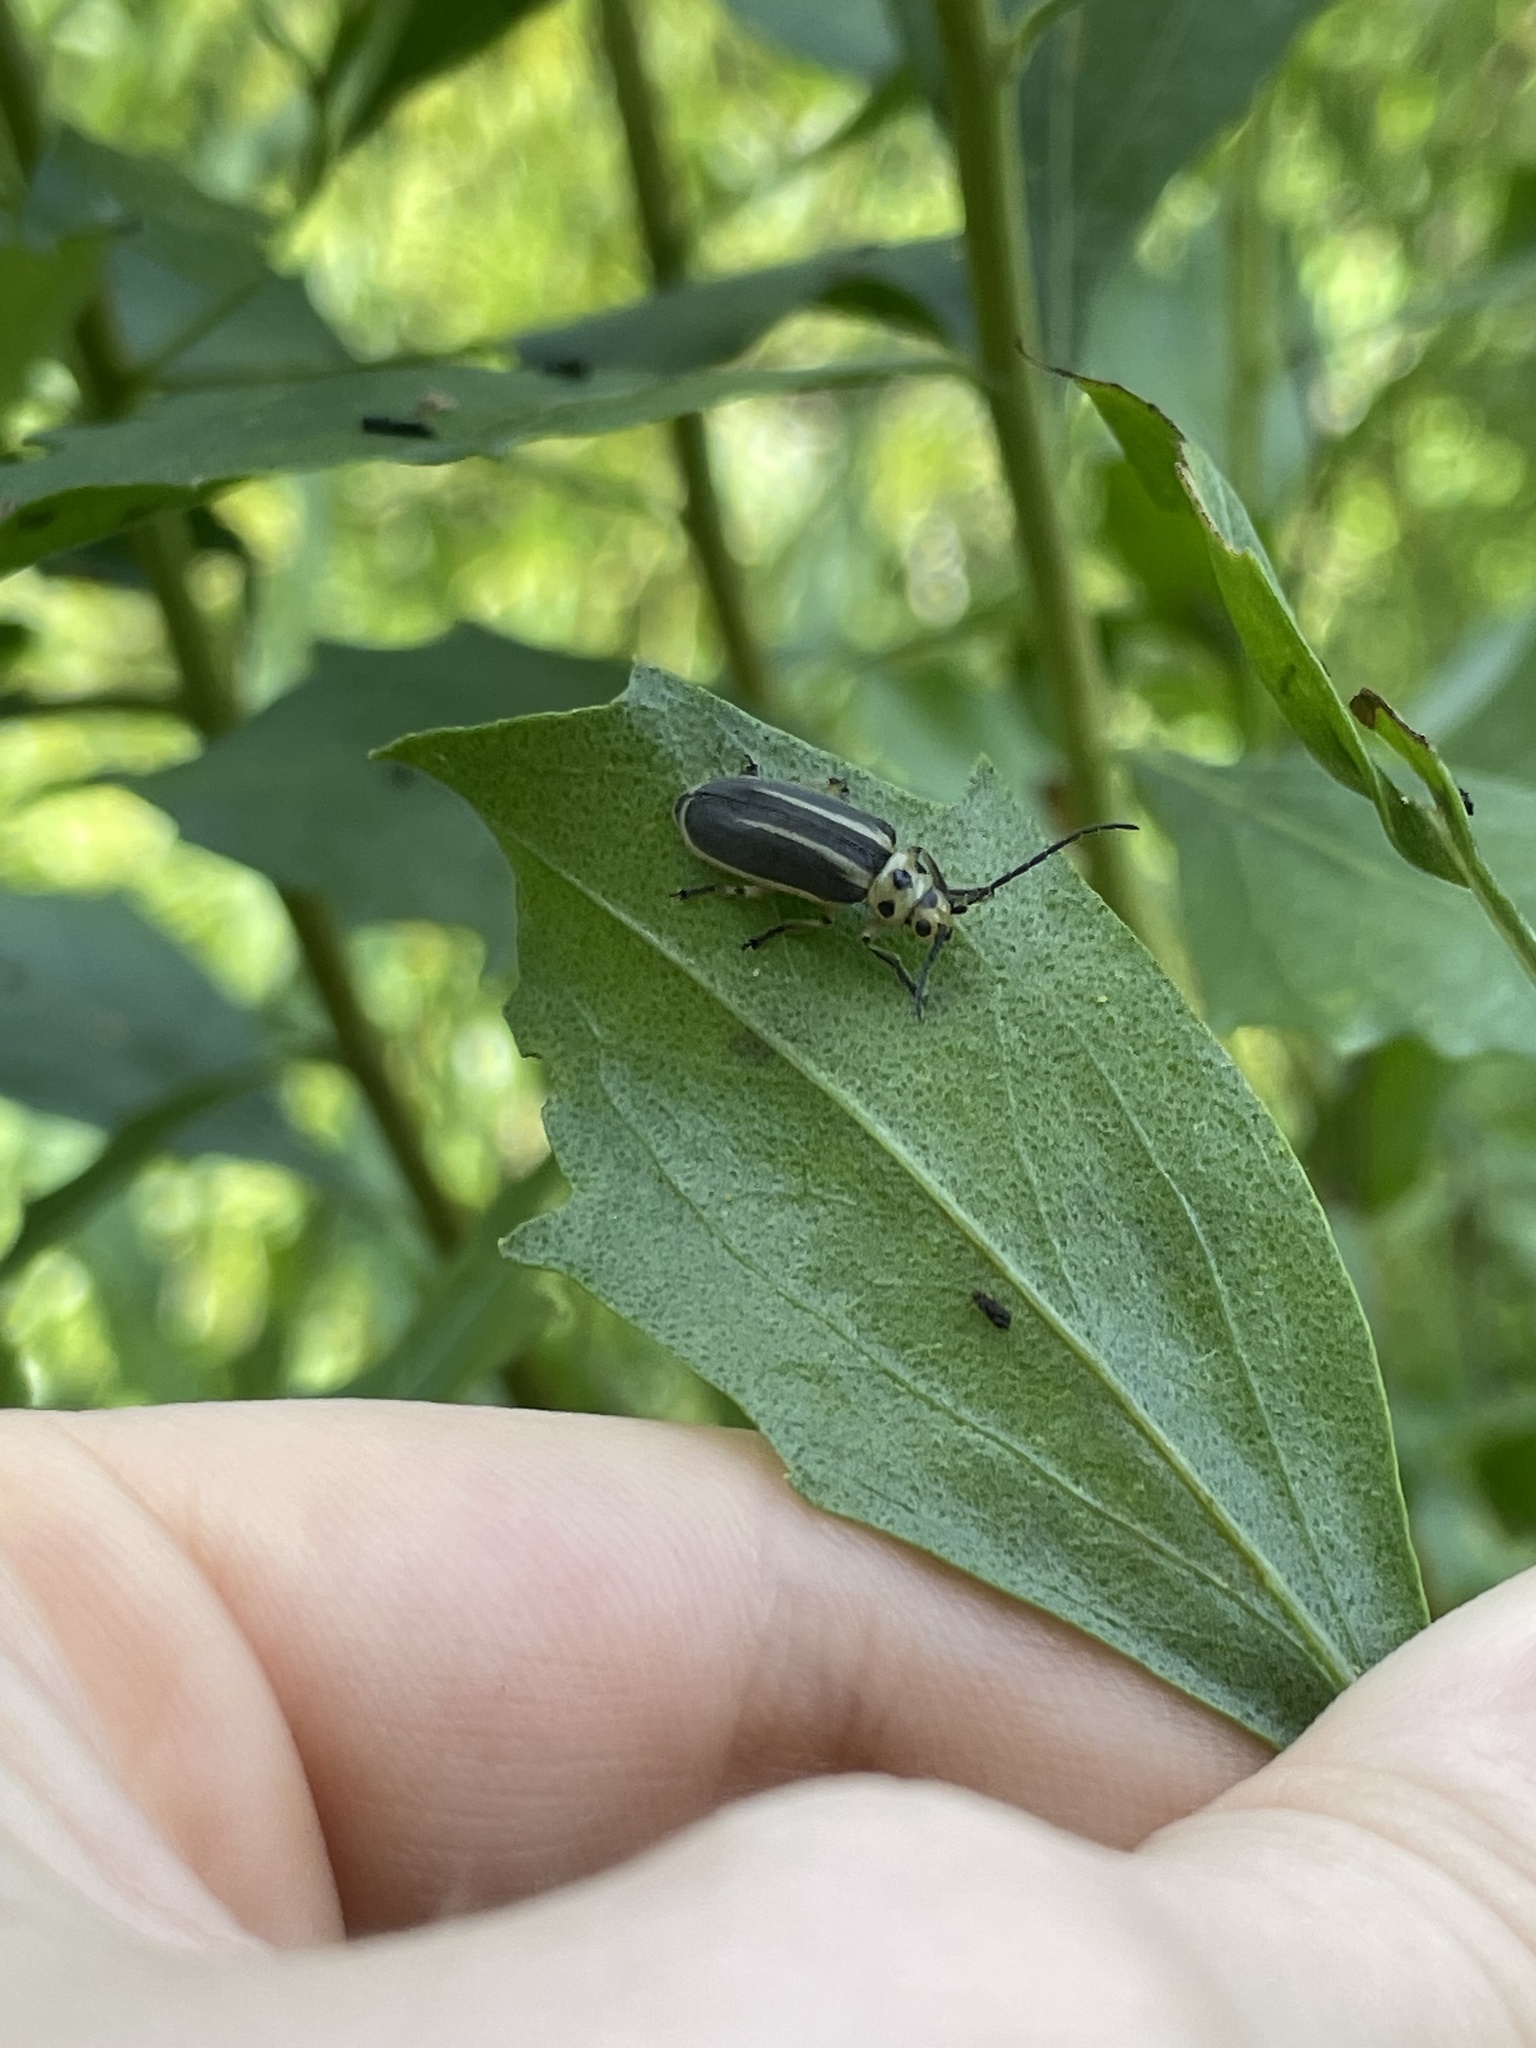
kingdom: Animalia
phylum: Arthropoda
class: Insecta
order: Coleoptera
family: Chrysomelidae
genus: Trirhabda
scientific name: Trirhabda bacharidis
